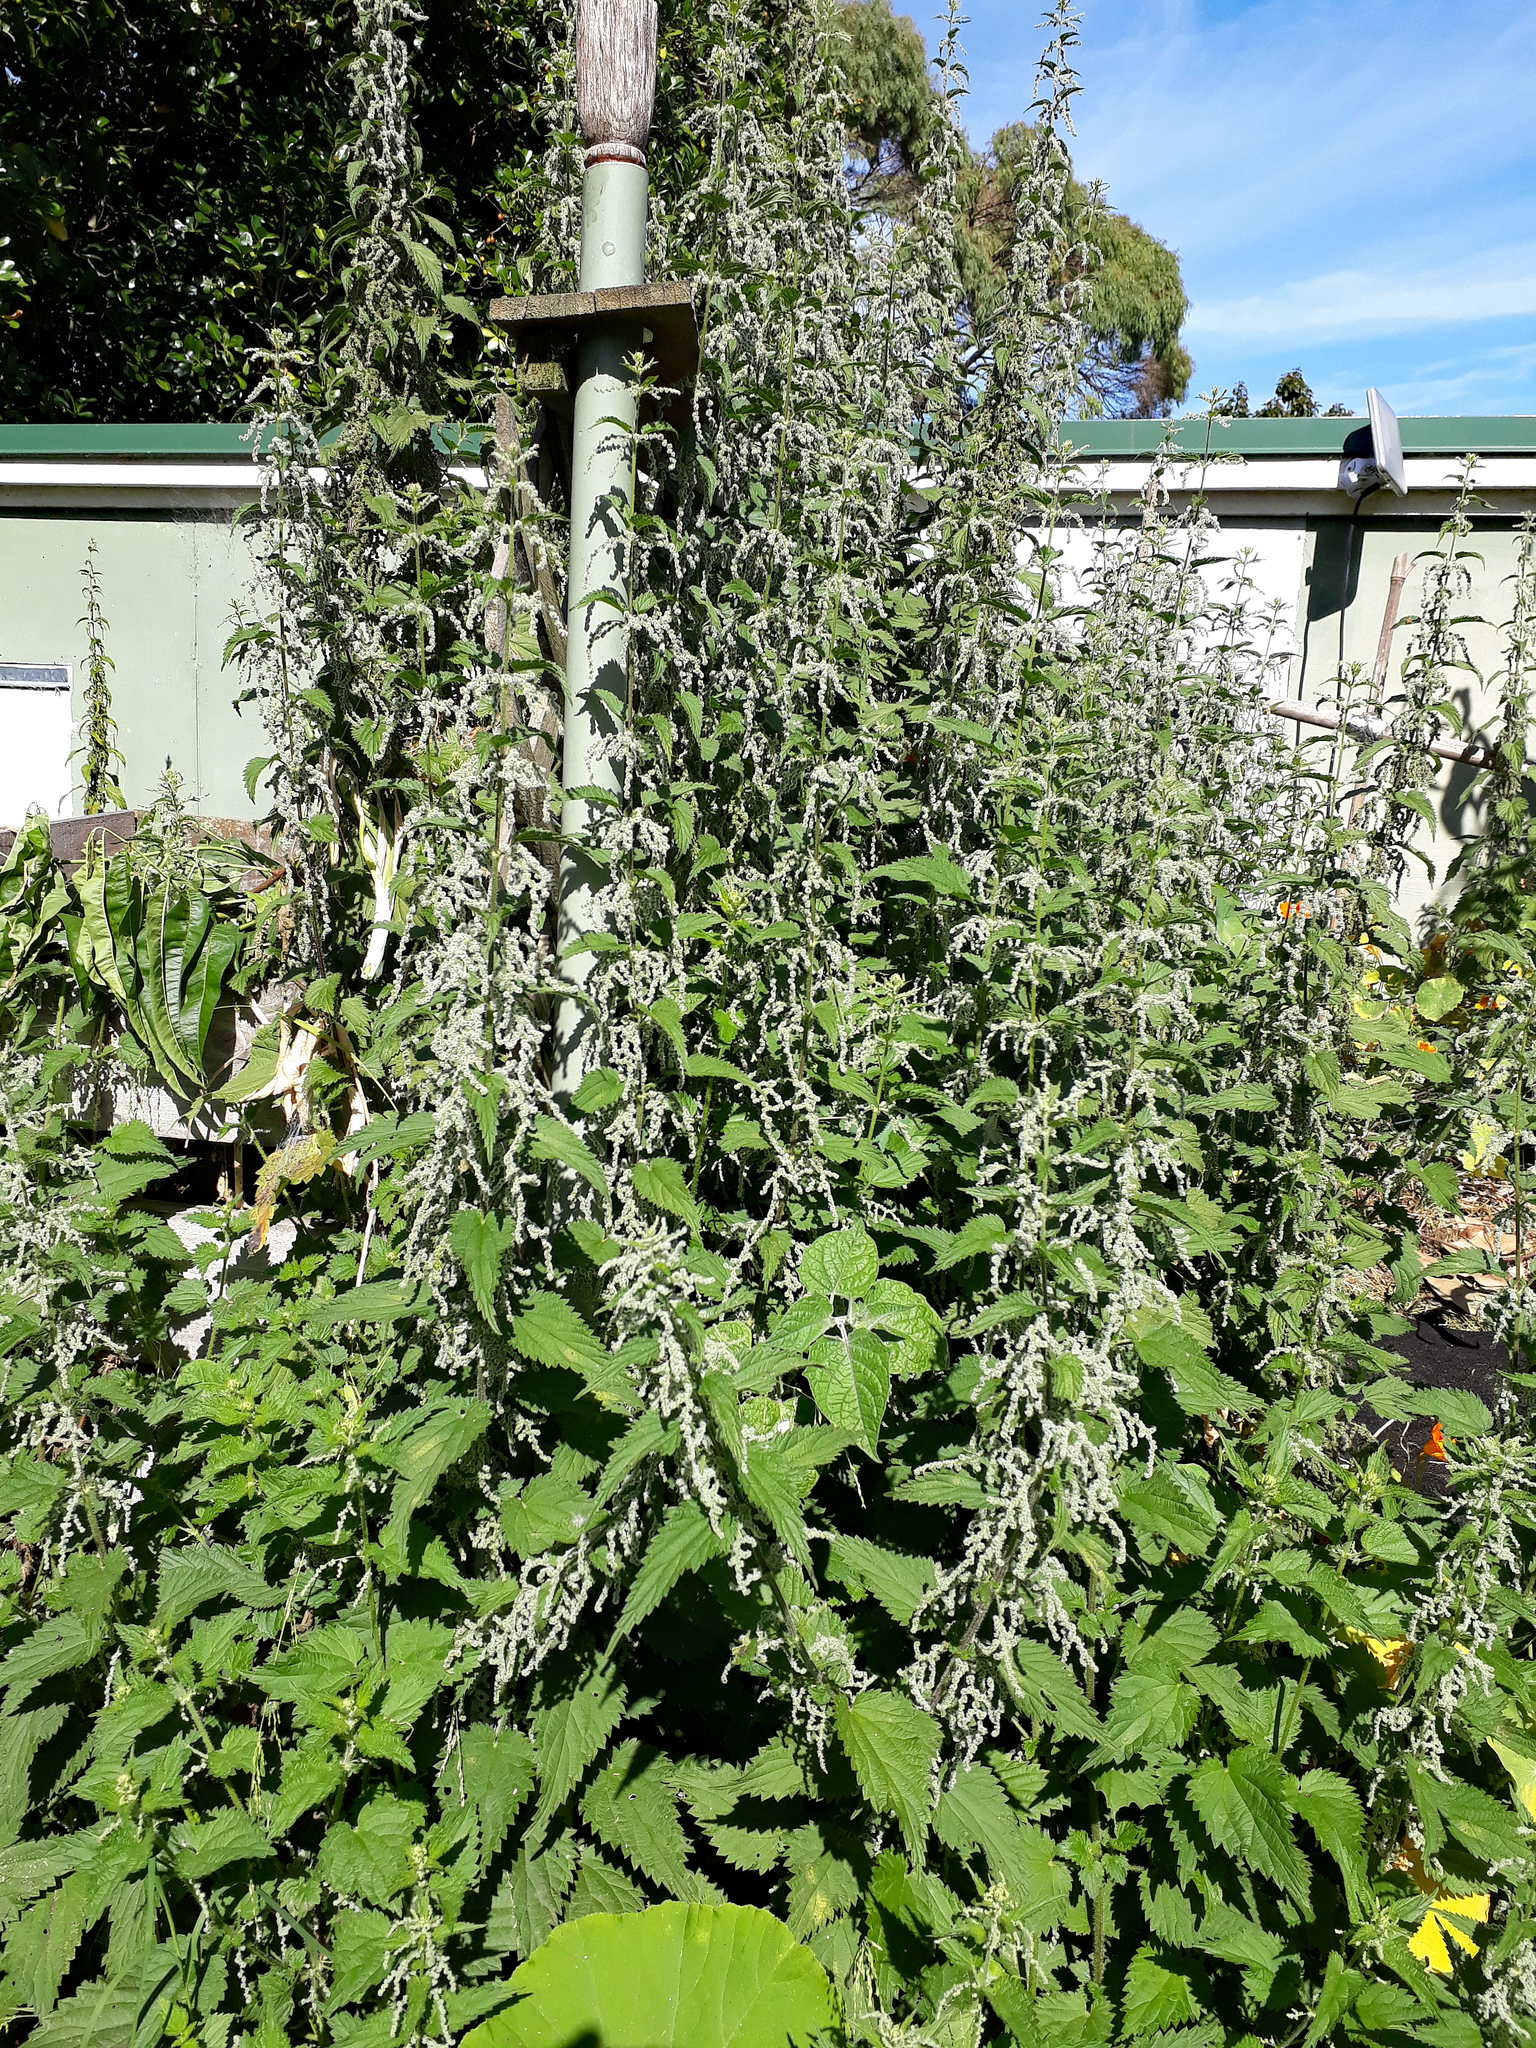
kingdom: Plantae
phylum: Tracheophyta
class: Magnoliopsida
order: Rosales
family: Urticaceae
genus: Urtica
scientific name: Urtica dioica
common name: Common nettle
